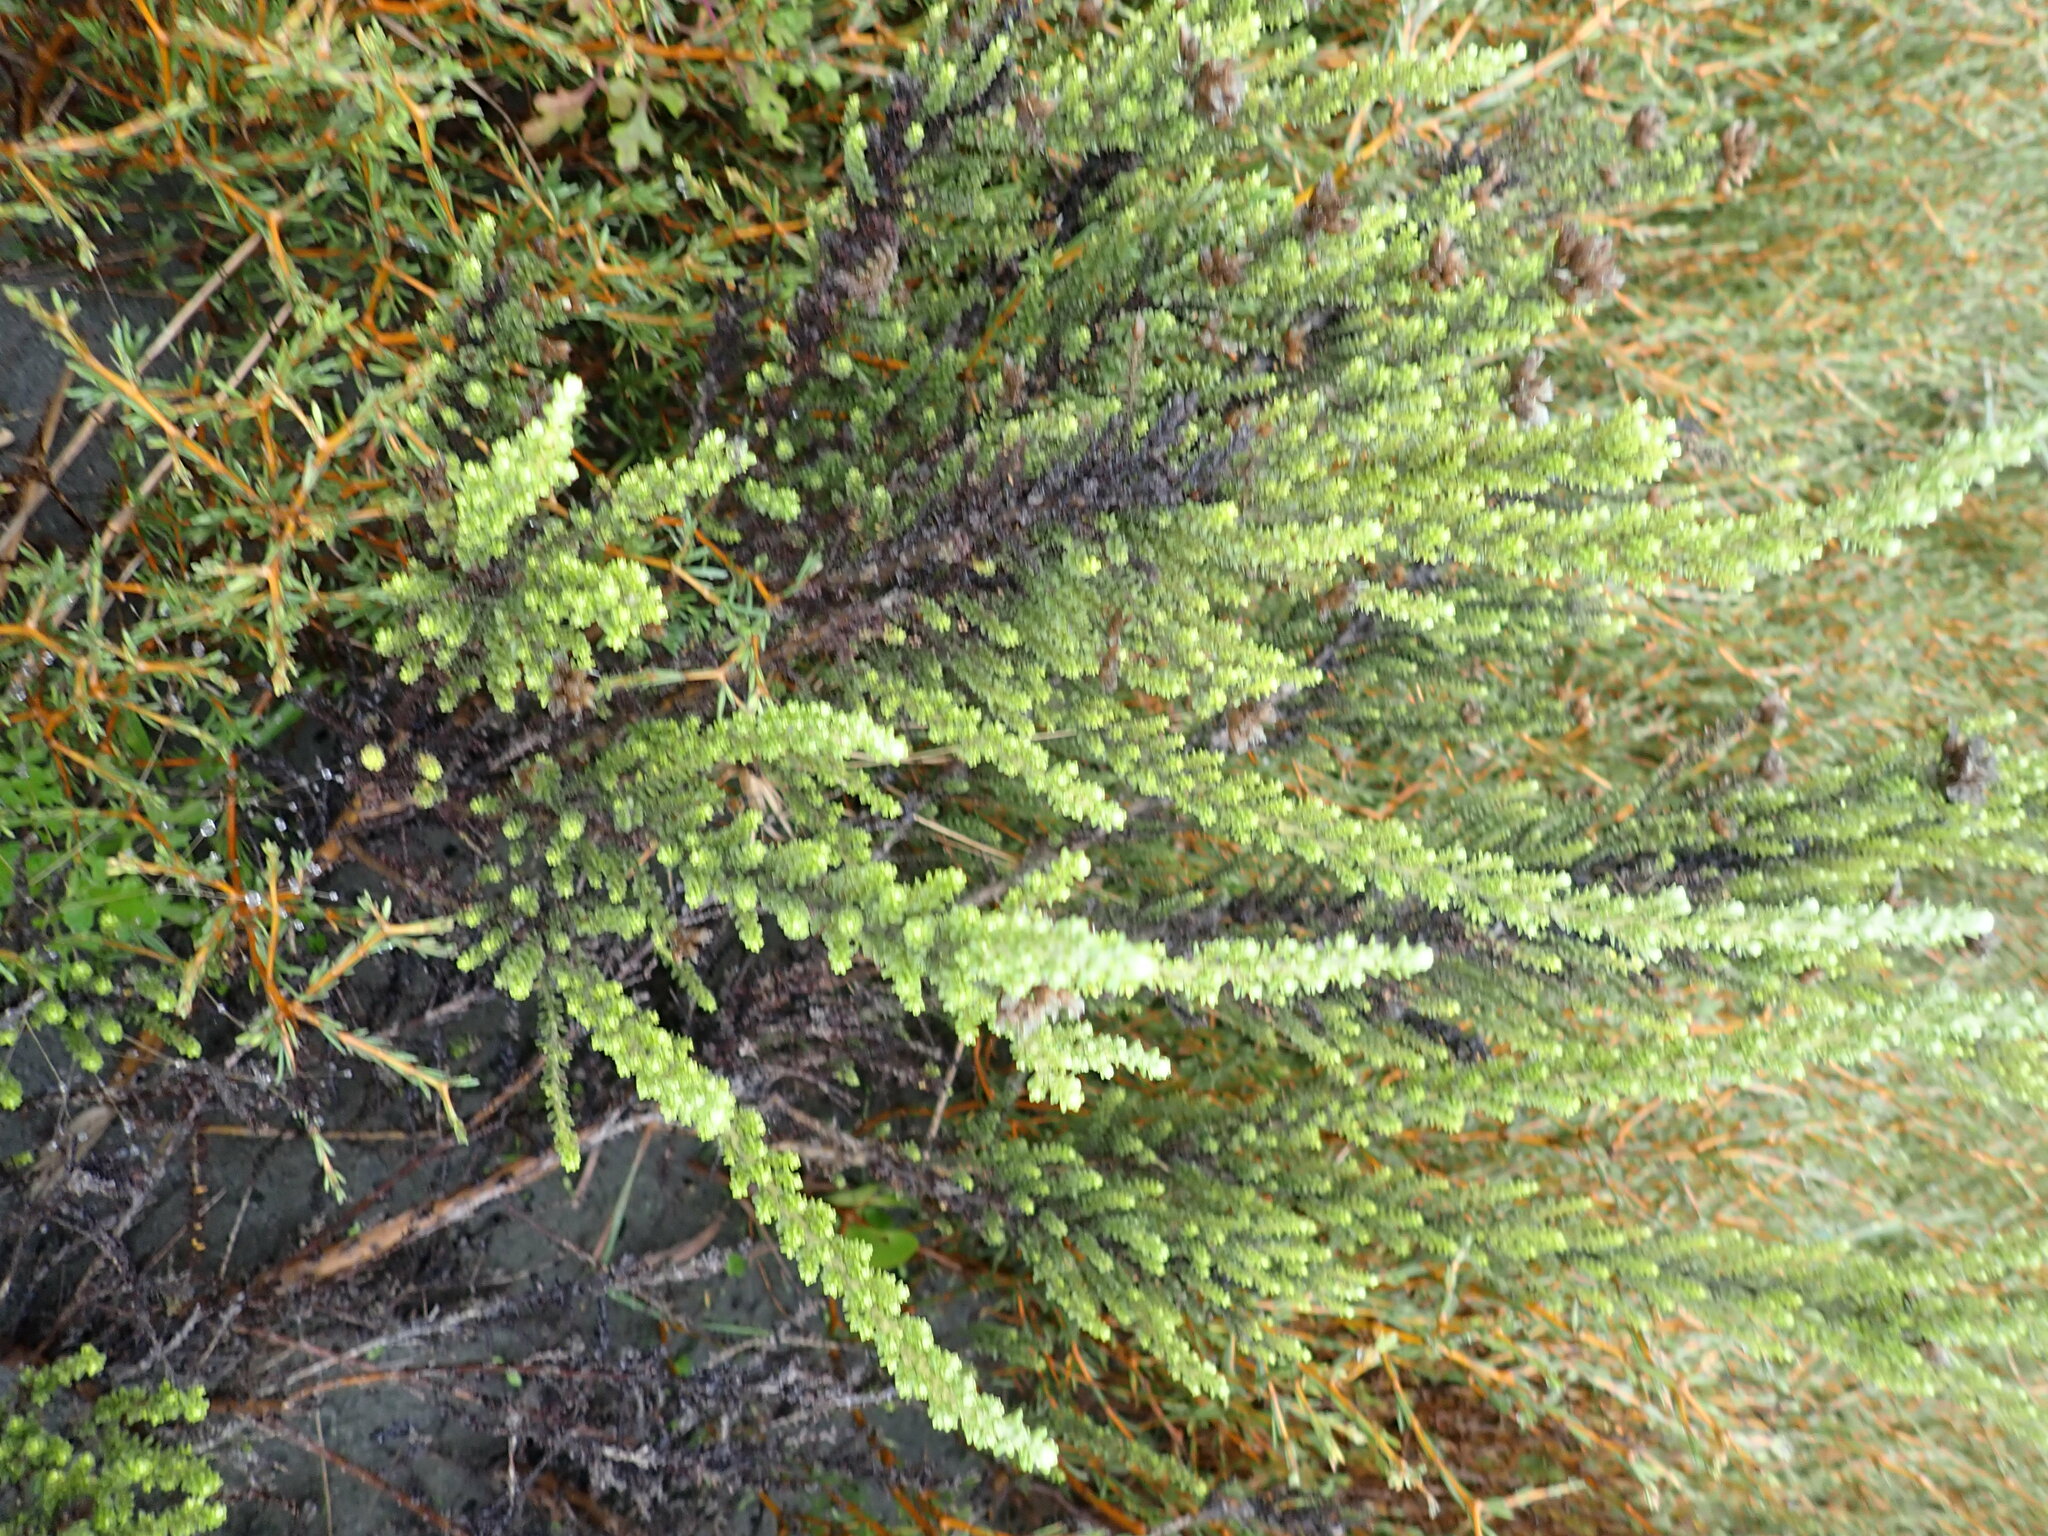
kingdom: Plantae
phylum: Tracheophyta
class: Magnoliopsida
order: Asterales
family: Asteraceae
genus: Ozothamnus
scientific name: Ozothamnus leptophyllus
